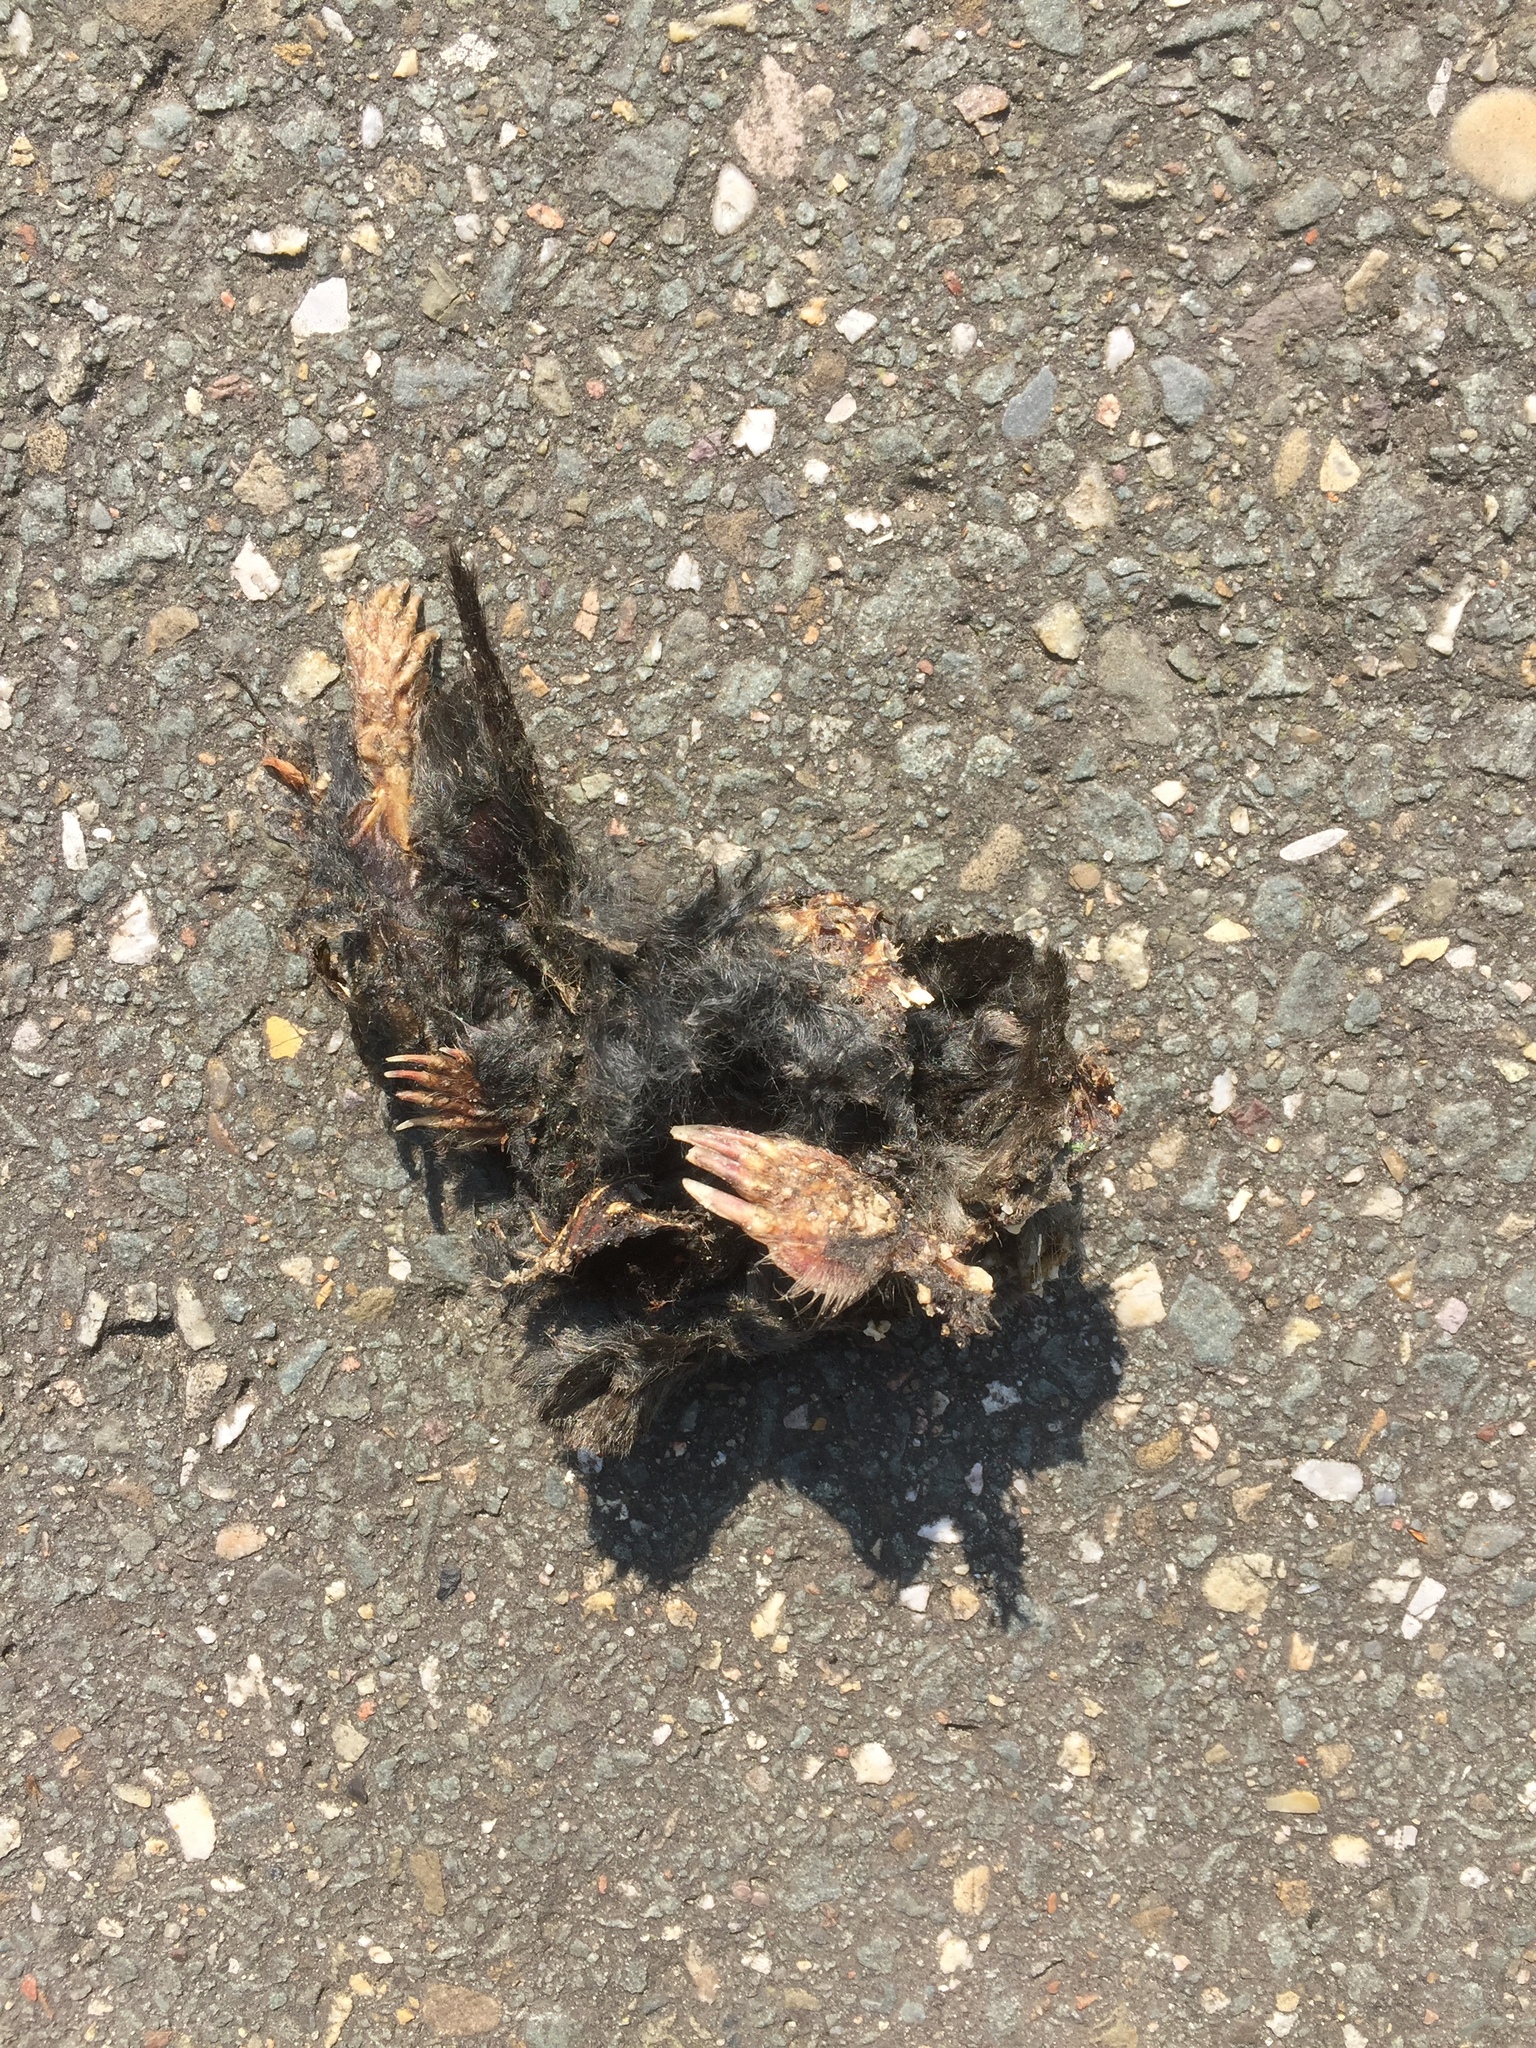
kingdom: Animalia
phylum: Chordata
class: Mammalia
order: Soricomorpha
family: Talpidae
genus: Talpa
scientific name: Talpa europaea
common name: European mole
